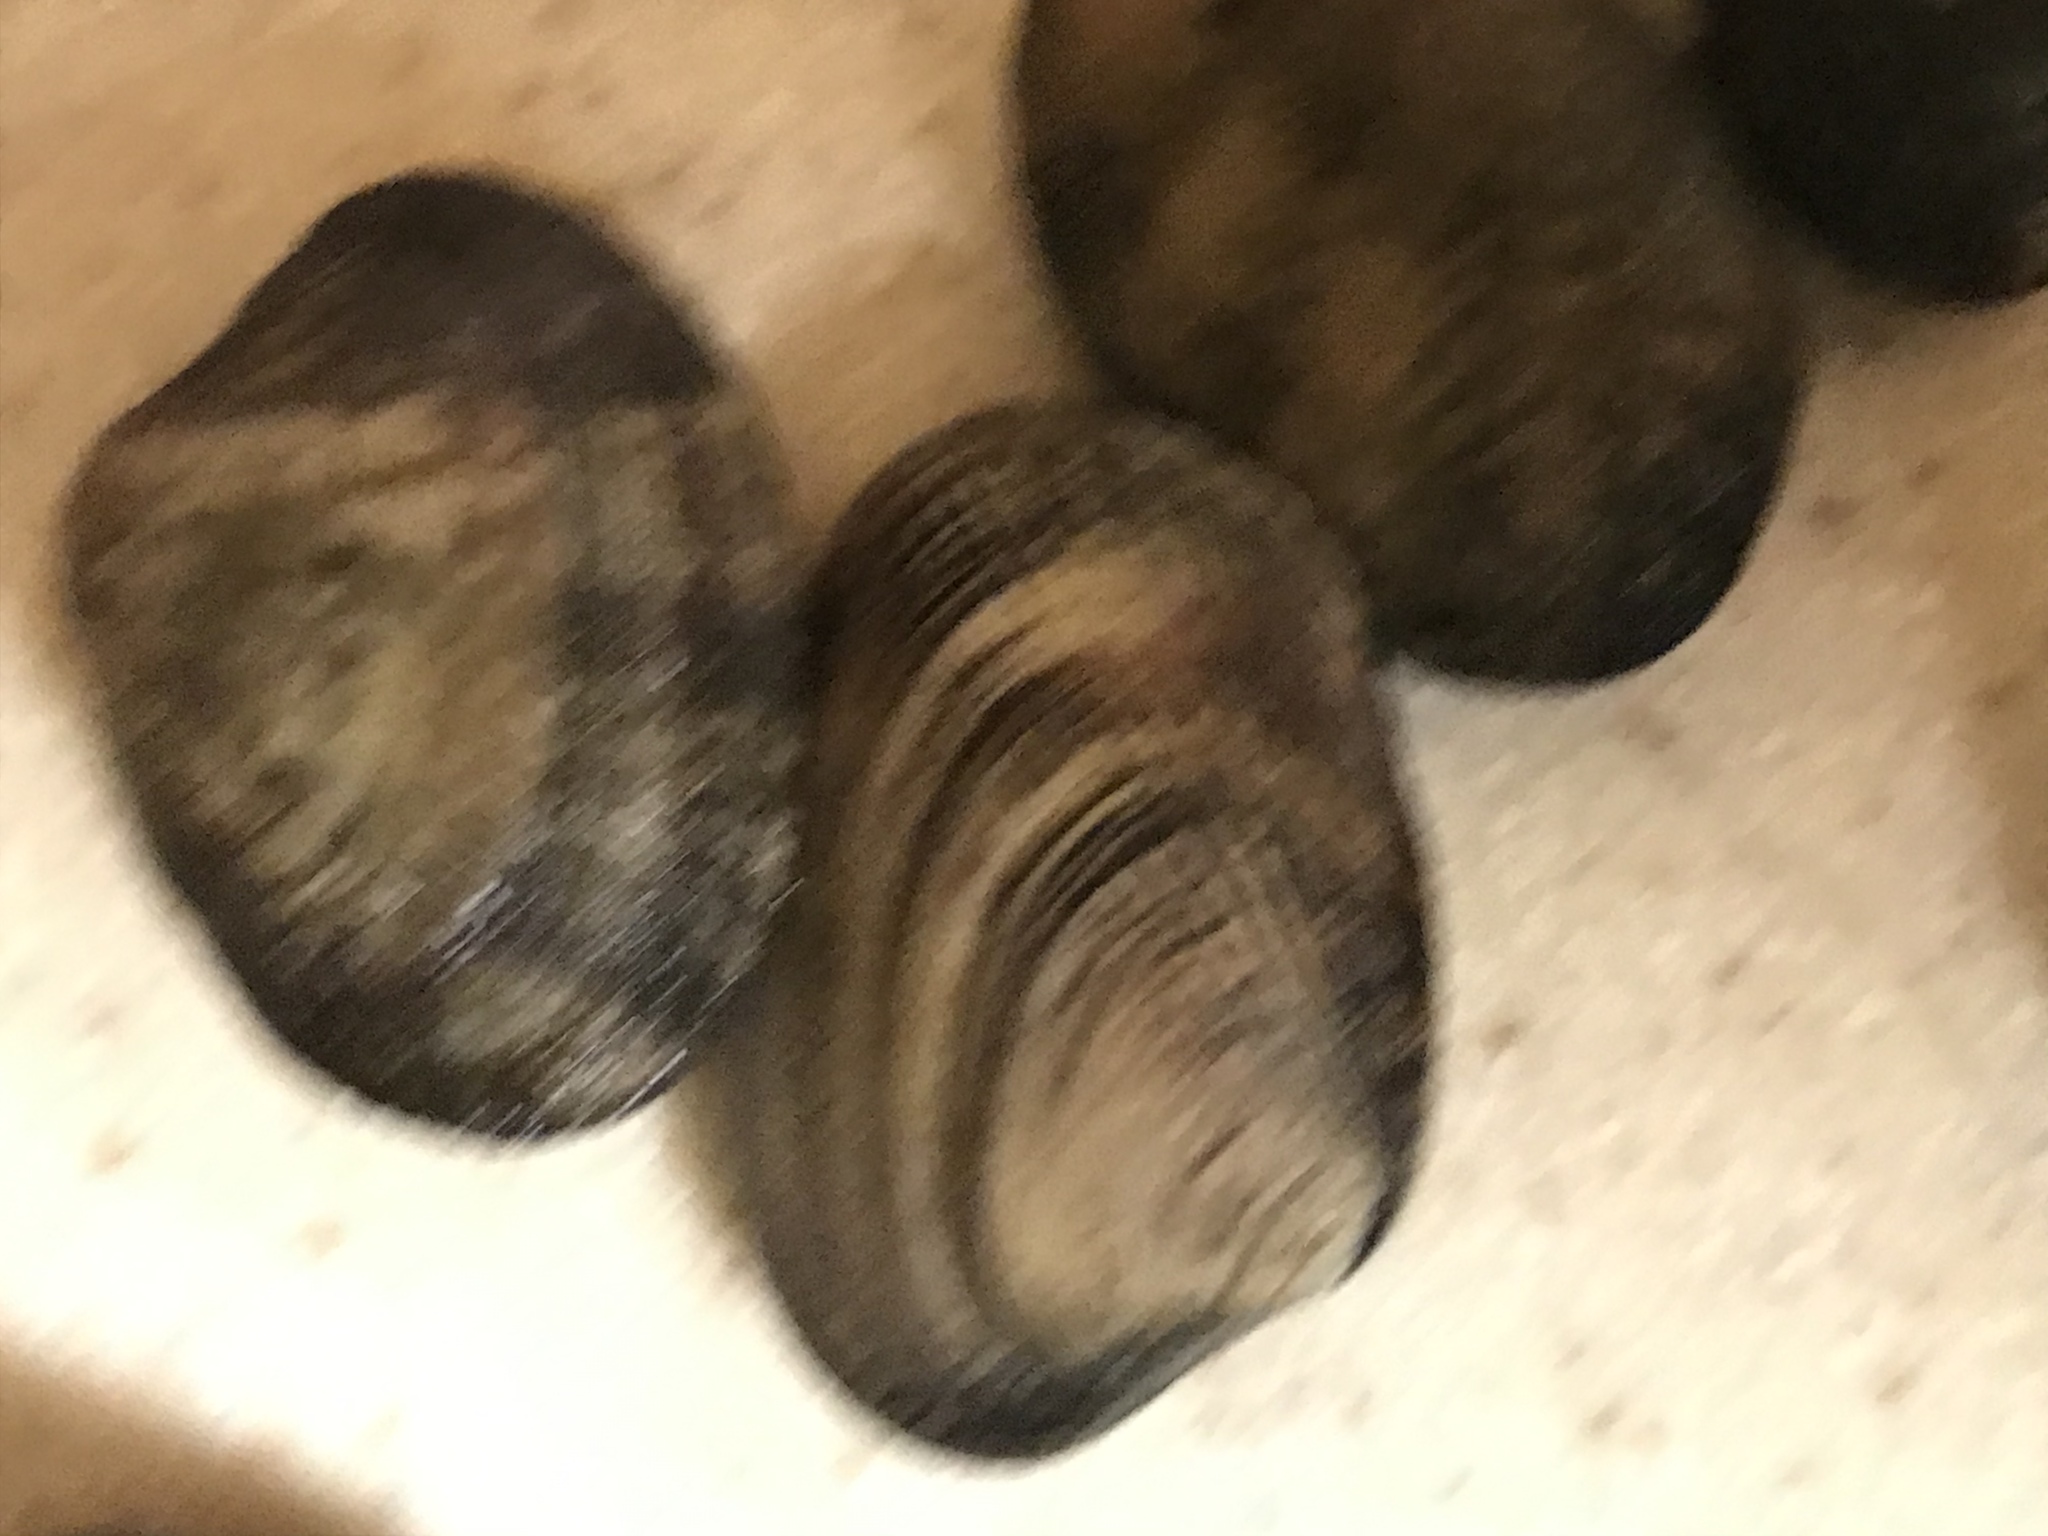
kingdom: Animalia
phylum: Mollusca
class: Bivalvia
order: Venerida
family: Veneridae
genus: Ruditapes
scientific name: Ruditapes philippinarum
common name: Manila clam
